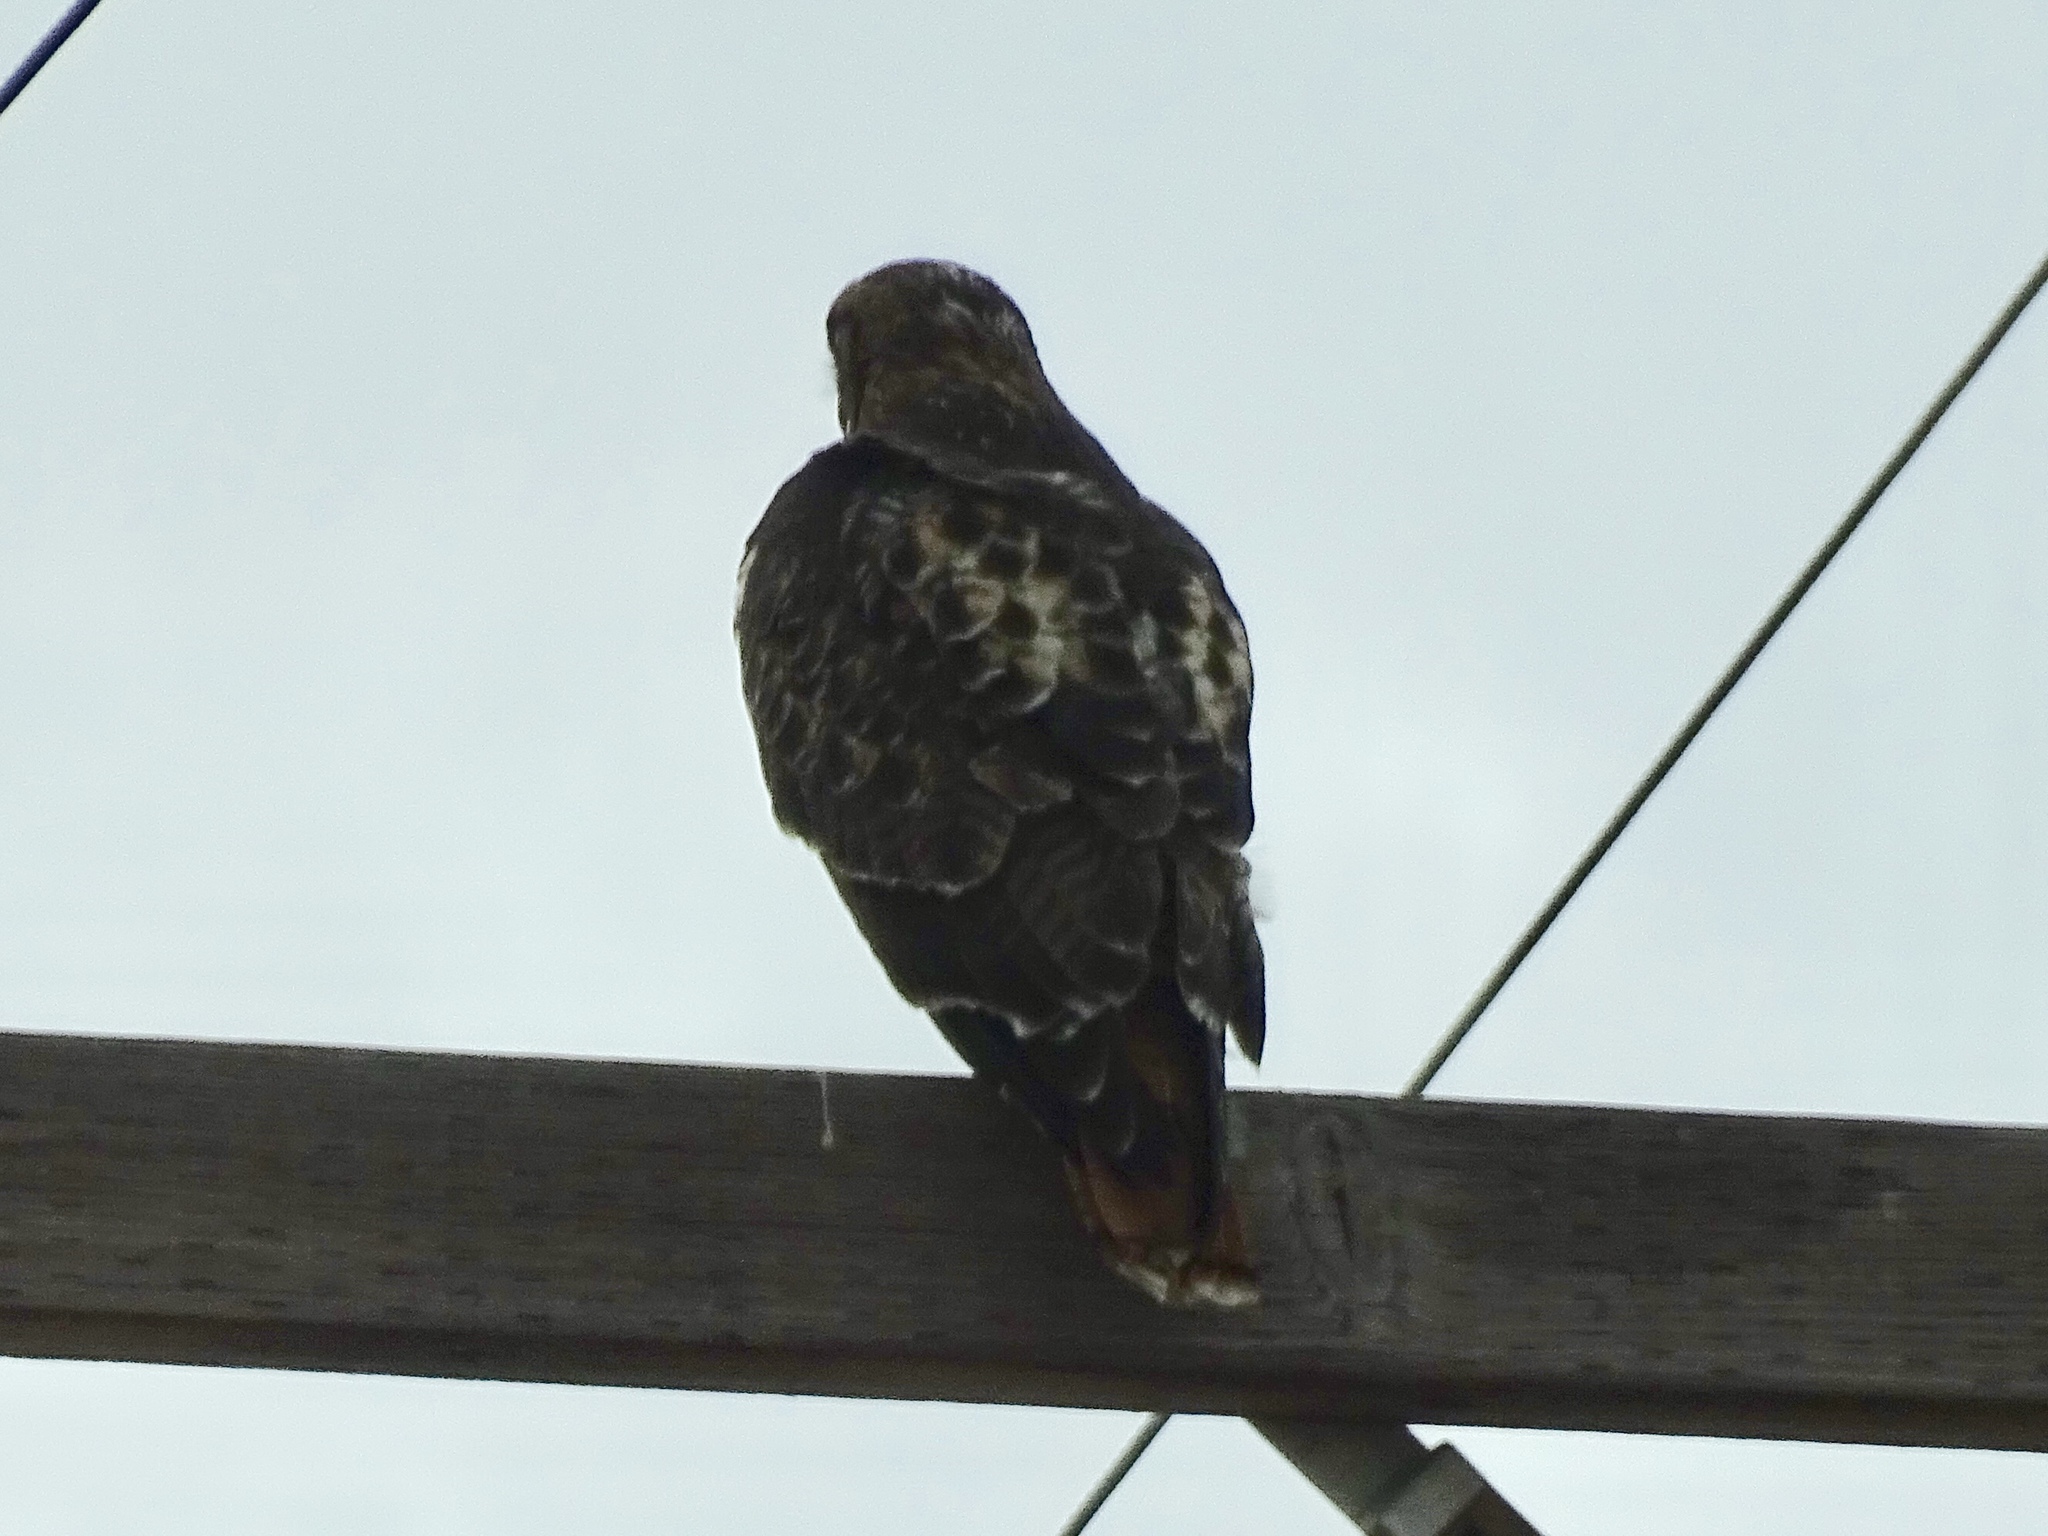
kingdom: Animalia
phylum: Chordata
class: Aves
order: Accipitriformes
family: Accipitridae
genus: Buteo
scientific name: Buteo jamaicensis
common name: Red-tailed hawk
